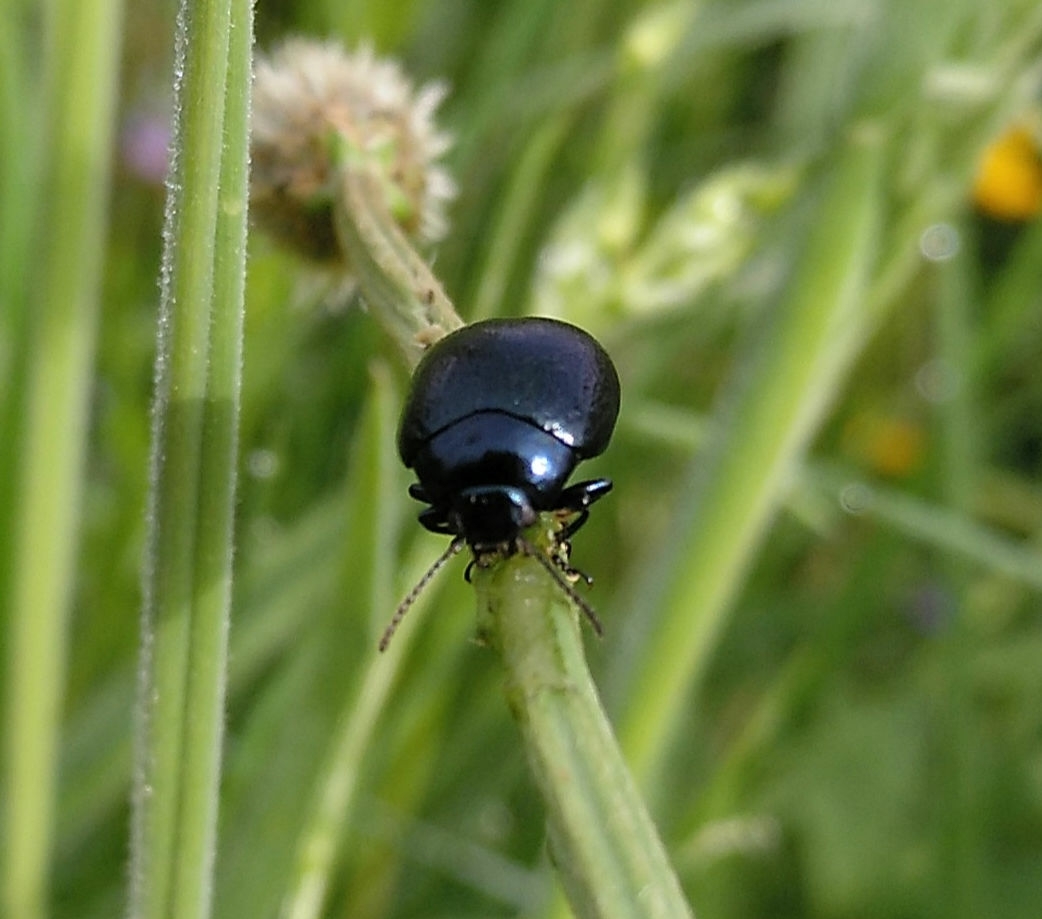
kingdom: Animalia
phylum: Arthropoda
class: Insecta
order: Coleoptera
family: Chrysomelidae
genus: Chrysolina
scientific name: Chrysolina haemoptera
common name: Plantain leaf beetle
